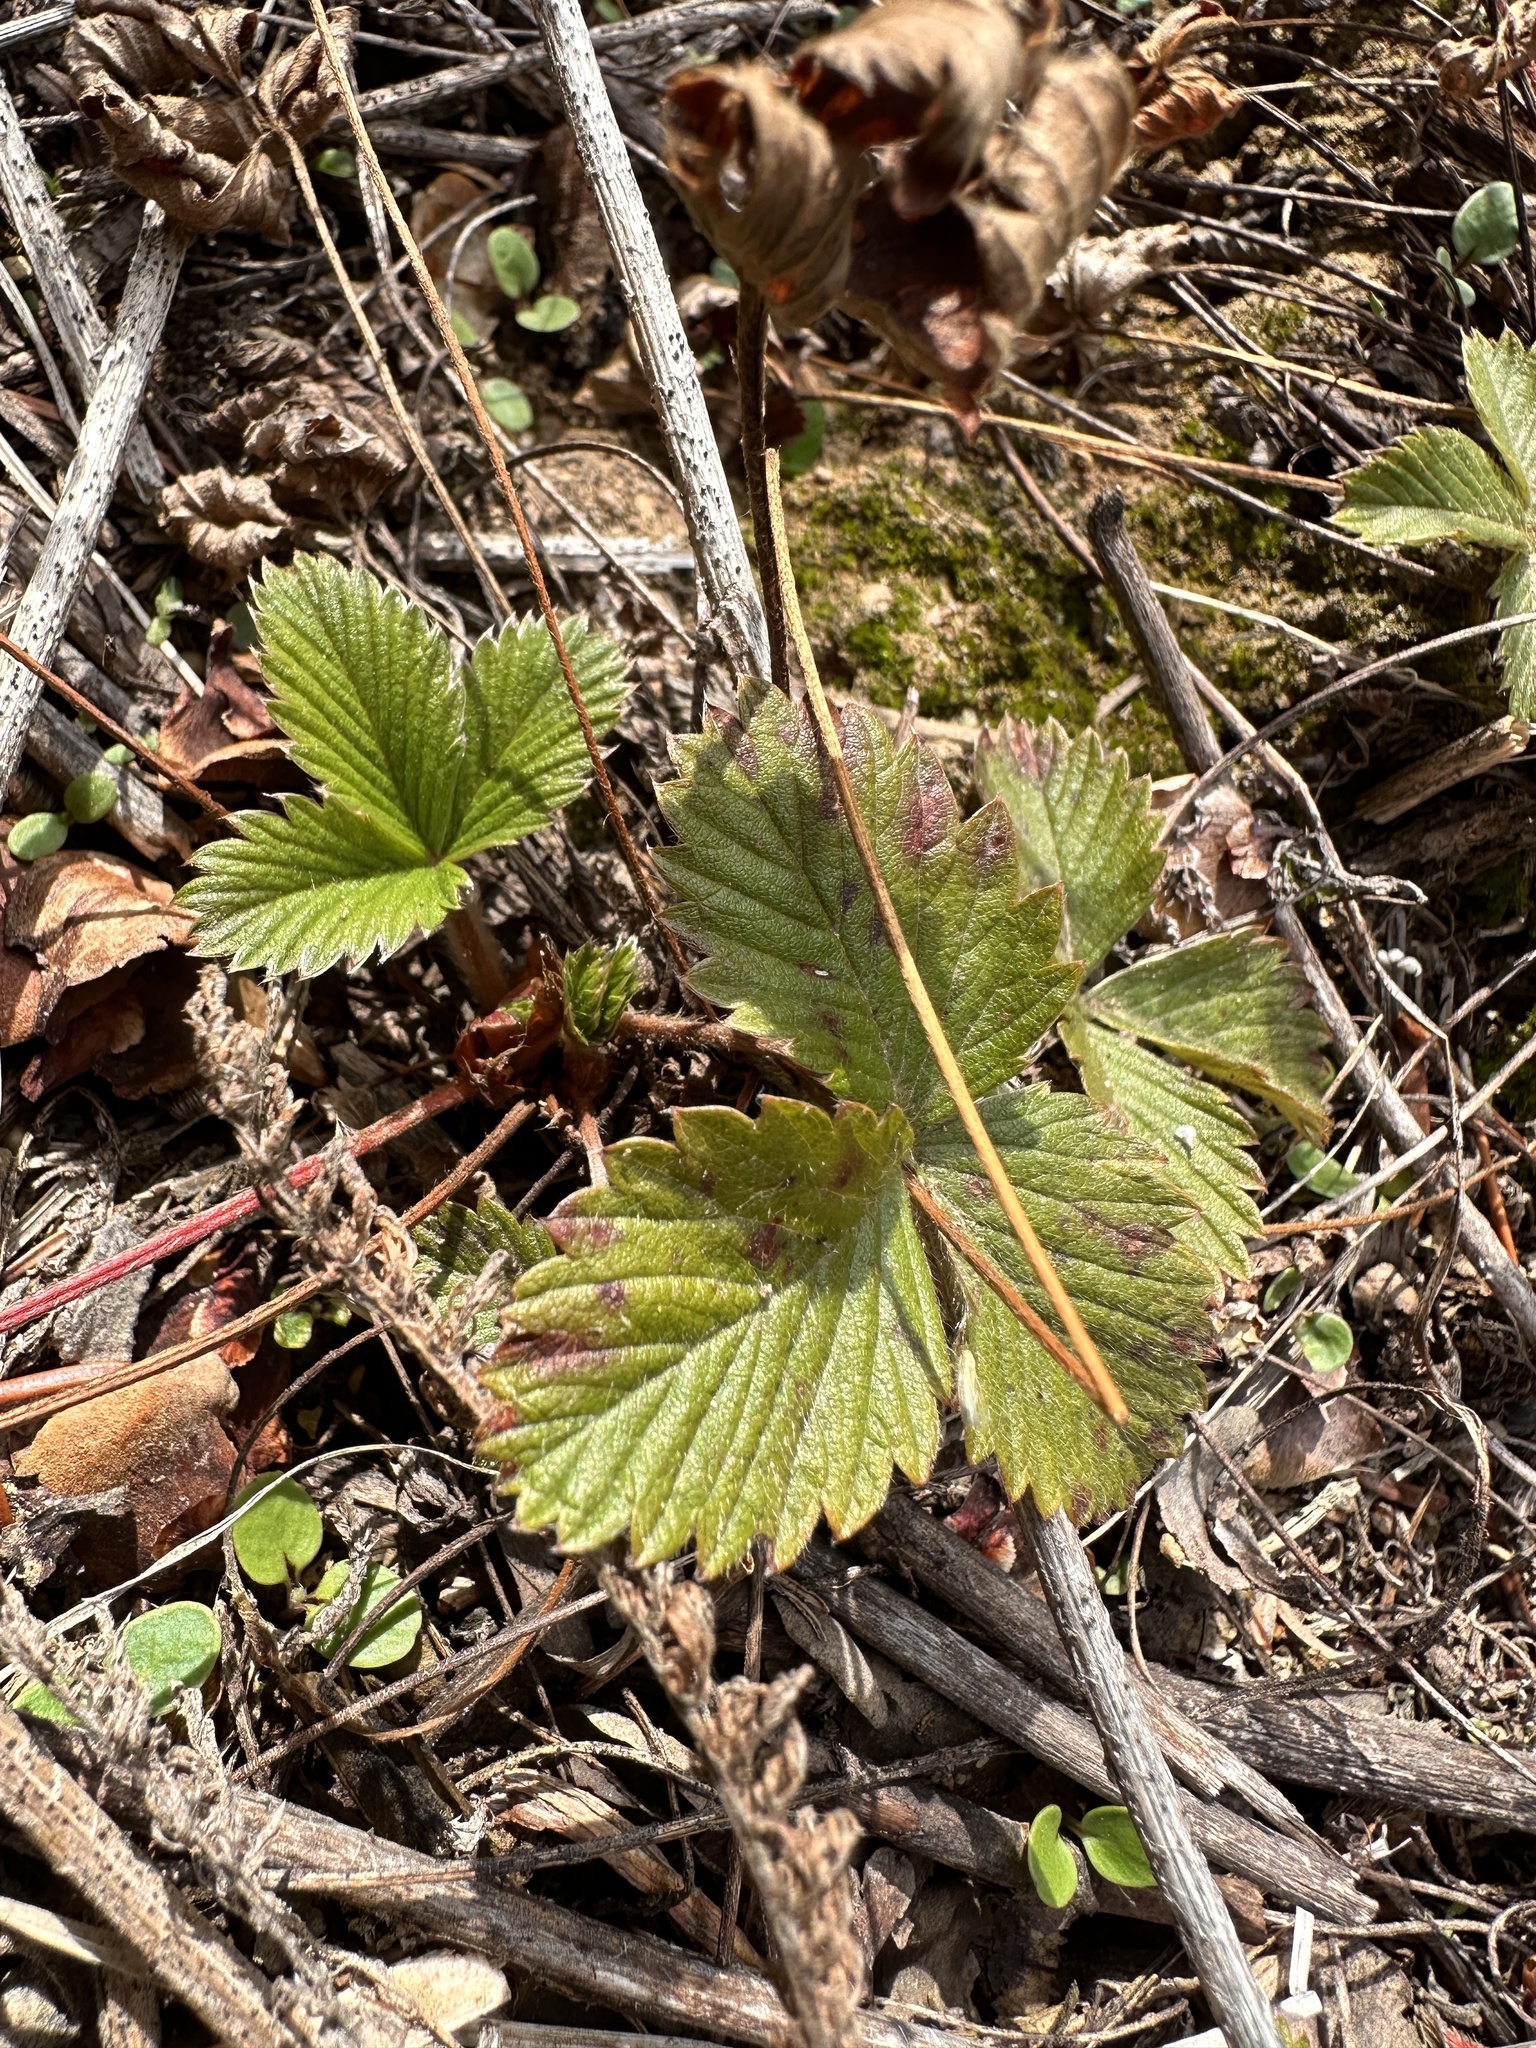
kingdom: Plantae
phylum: Tracheophyta
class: Magnoliopsida
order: Rosales
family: Rosaceae
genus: Fragaria
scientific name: Fragaria vesca
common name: Wild strawberry
